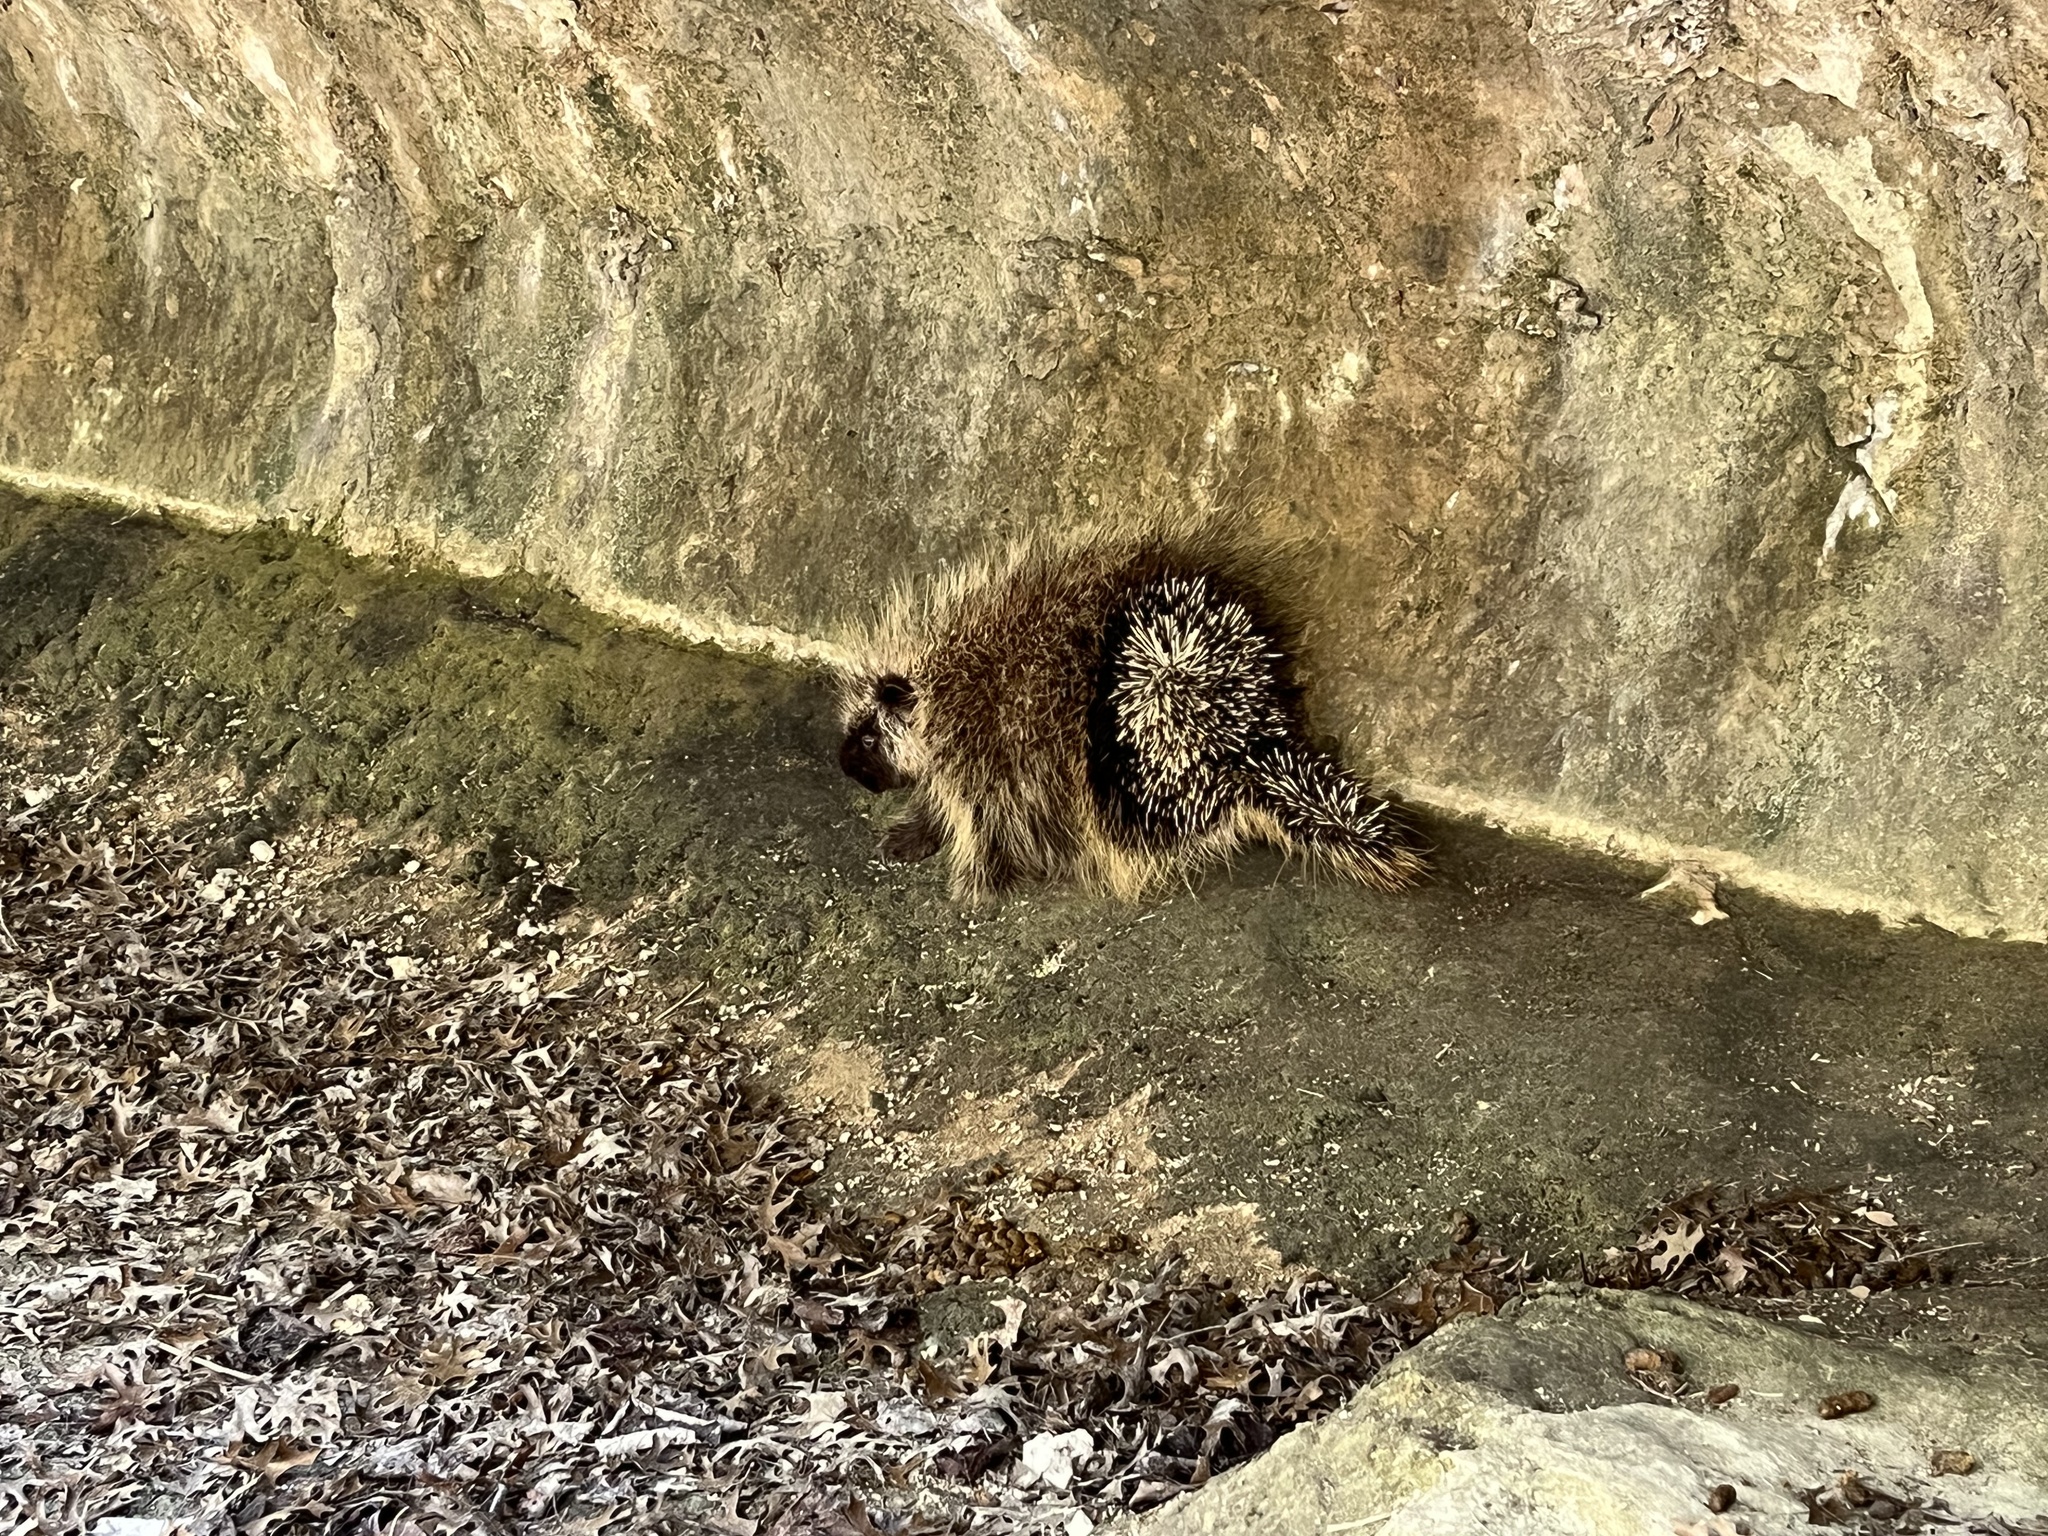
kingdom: Animalia
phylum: Chordata
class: Mammalia
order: Rodentia
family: Erethizontidae
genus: Erethizon
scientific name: Erethizon dorsatus
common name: North american porcupine
